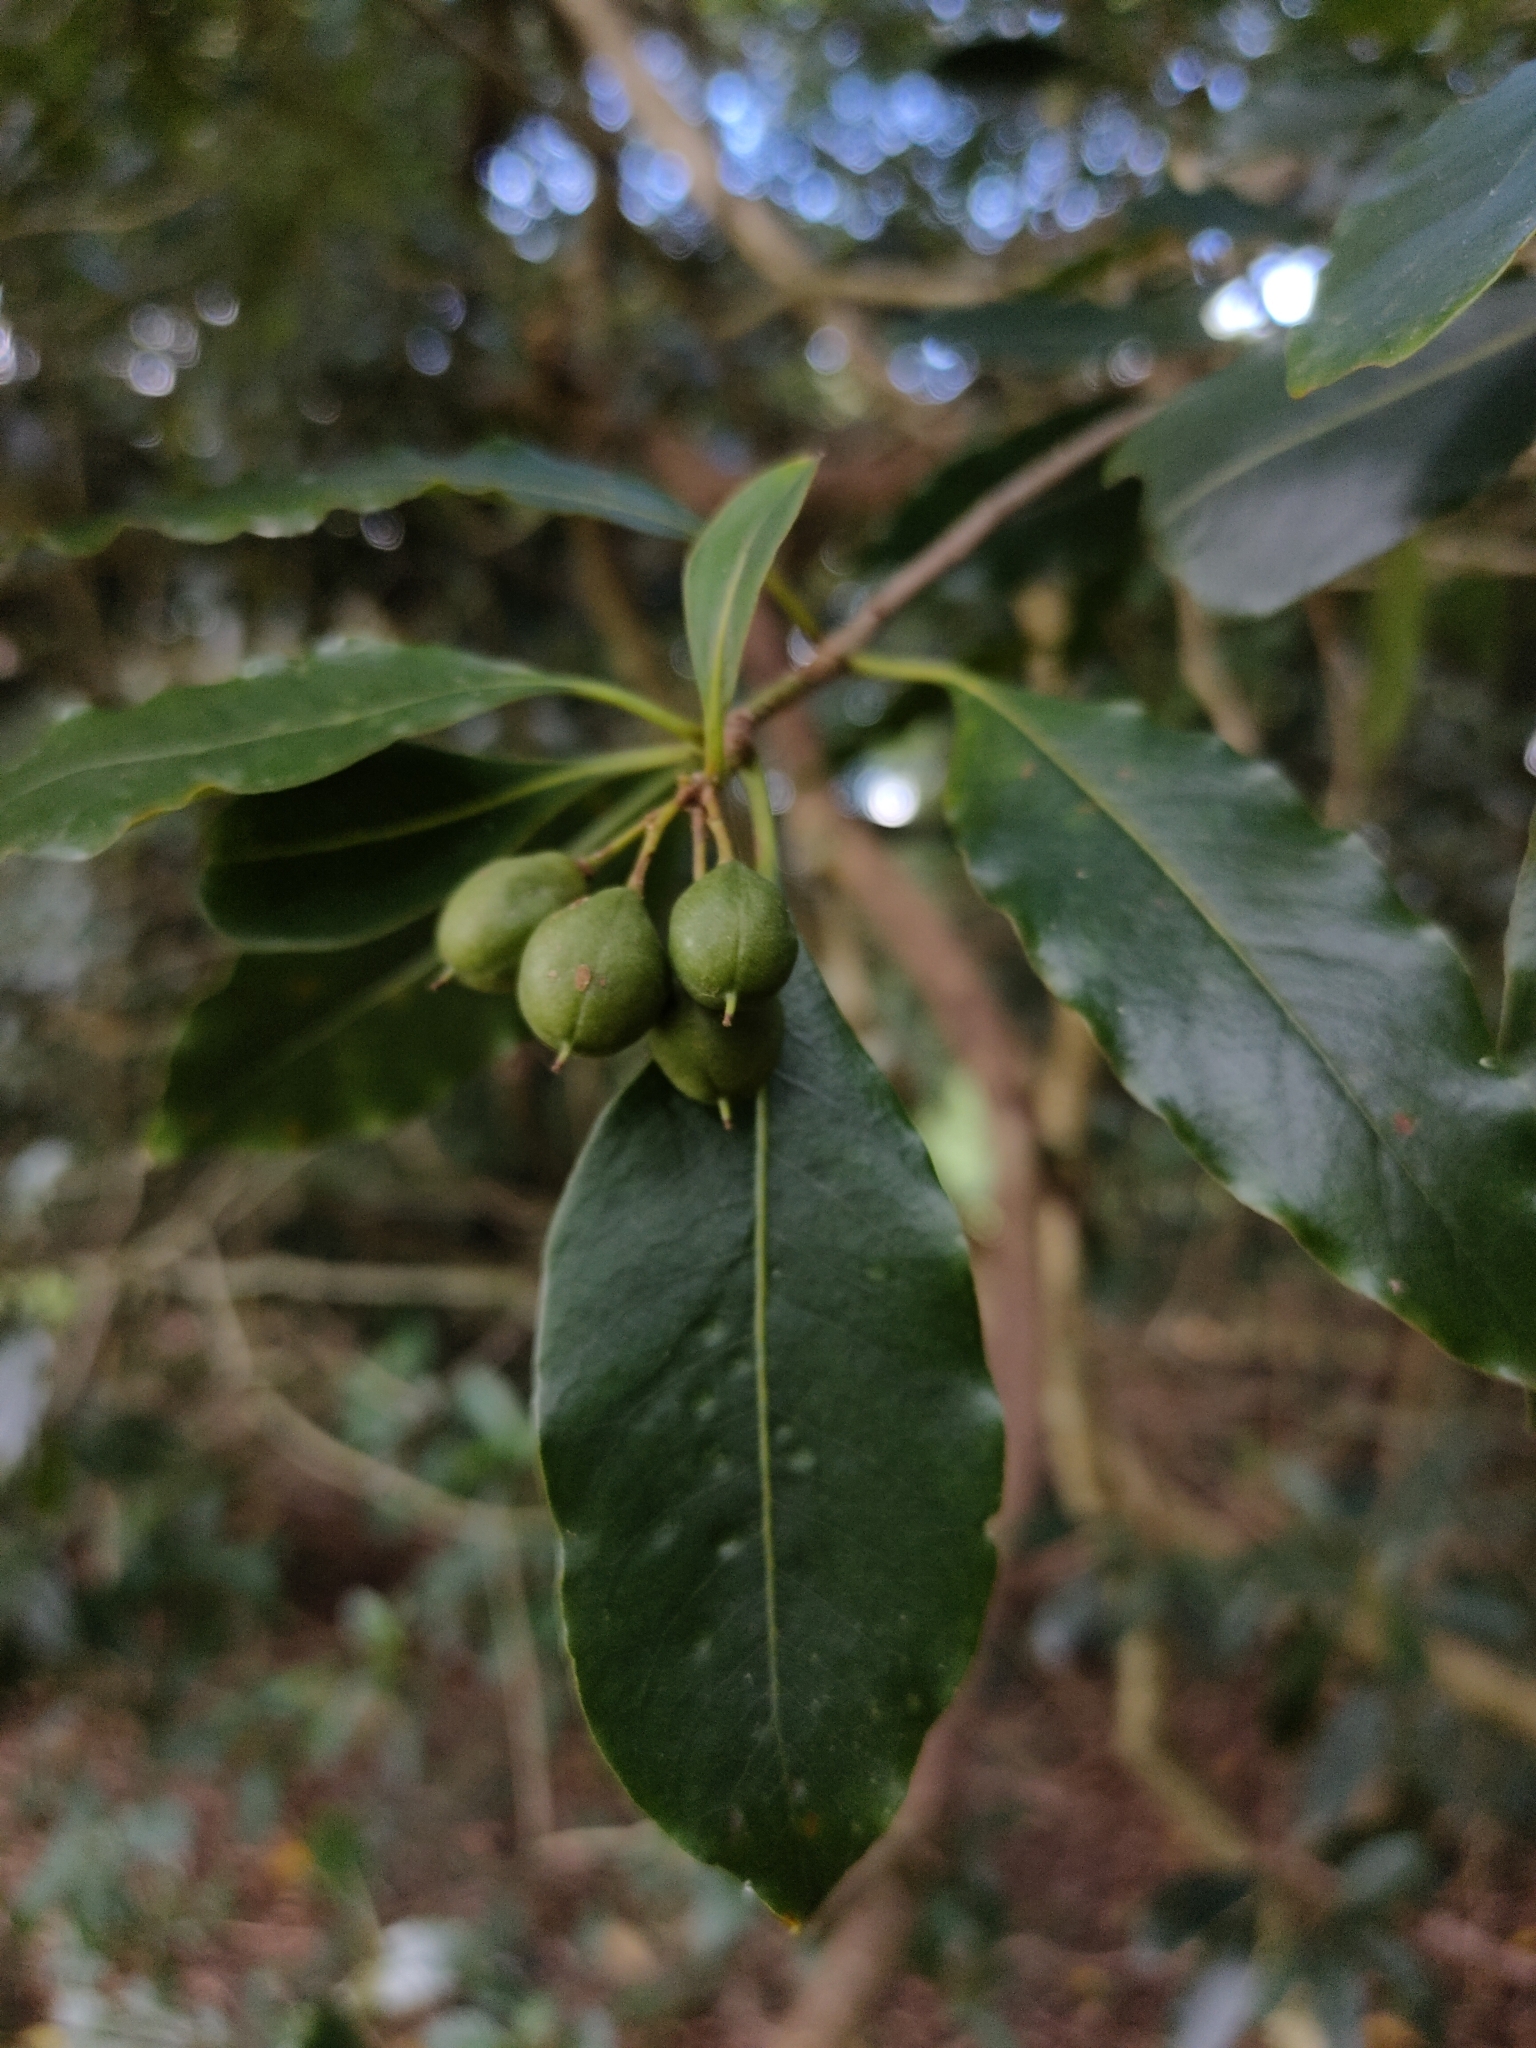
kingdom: Plantae
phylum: Tracheophyta
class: Magnoliopsida
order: Apiales
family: Pittosporaceae
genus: Pittosporum
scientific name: Pittosporum undulatum
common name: Australian cheesewood
